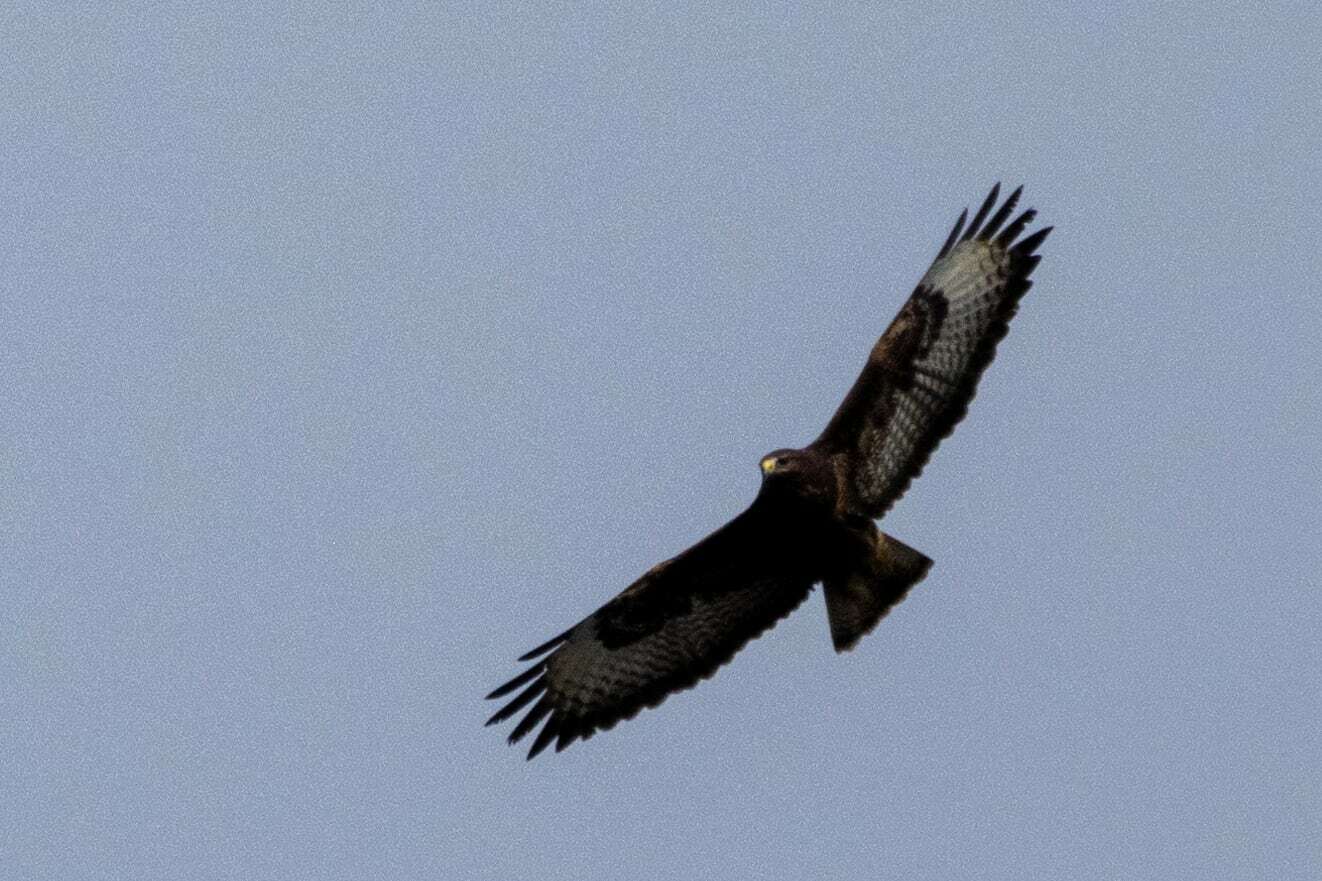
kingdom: Animalia
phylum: Chordata
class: Aves
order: Accipitriformes
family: Accipitridae
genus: Buteo
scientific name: Buteo buteo
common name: Common buzzard
